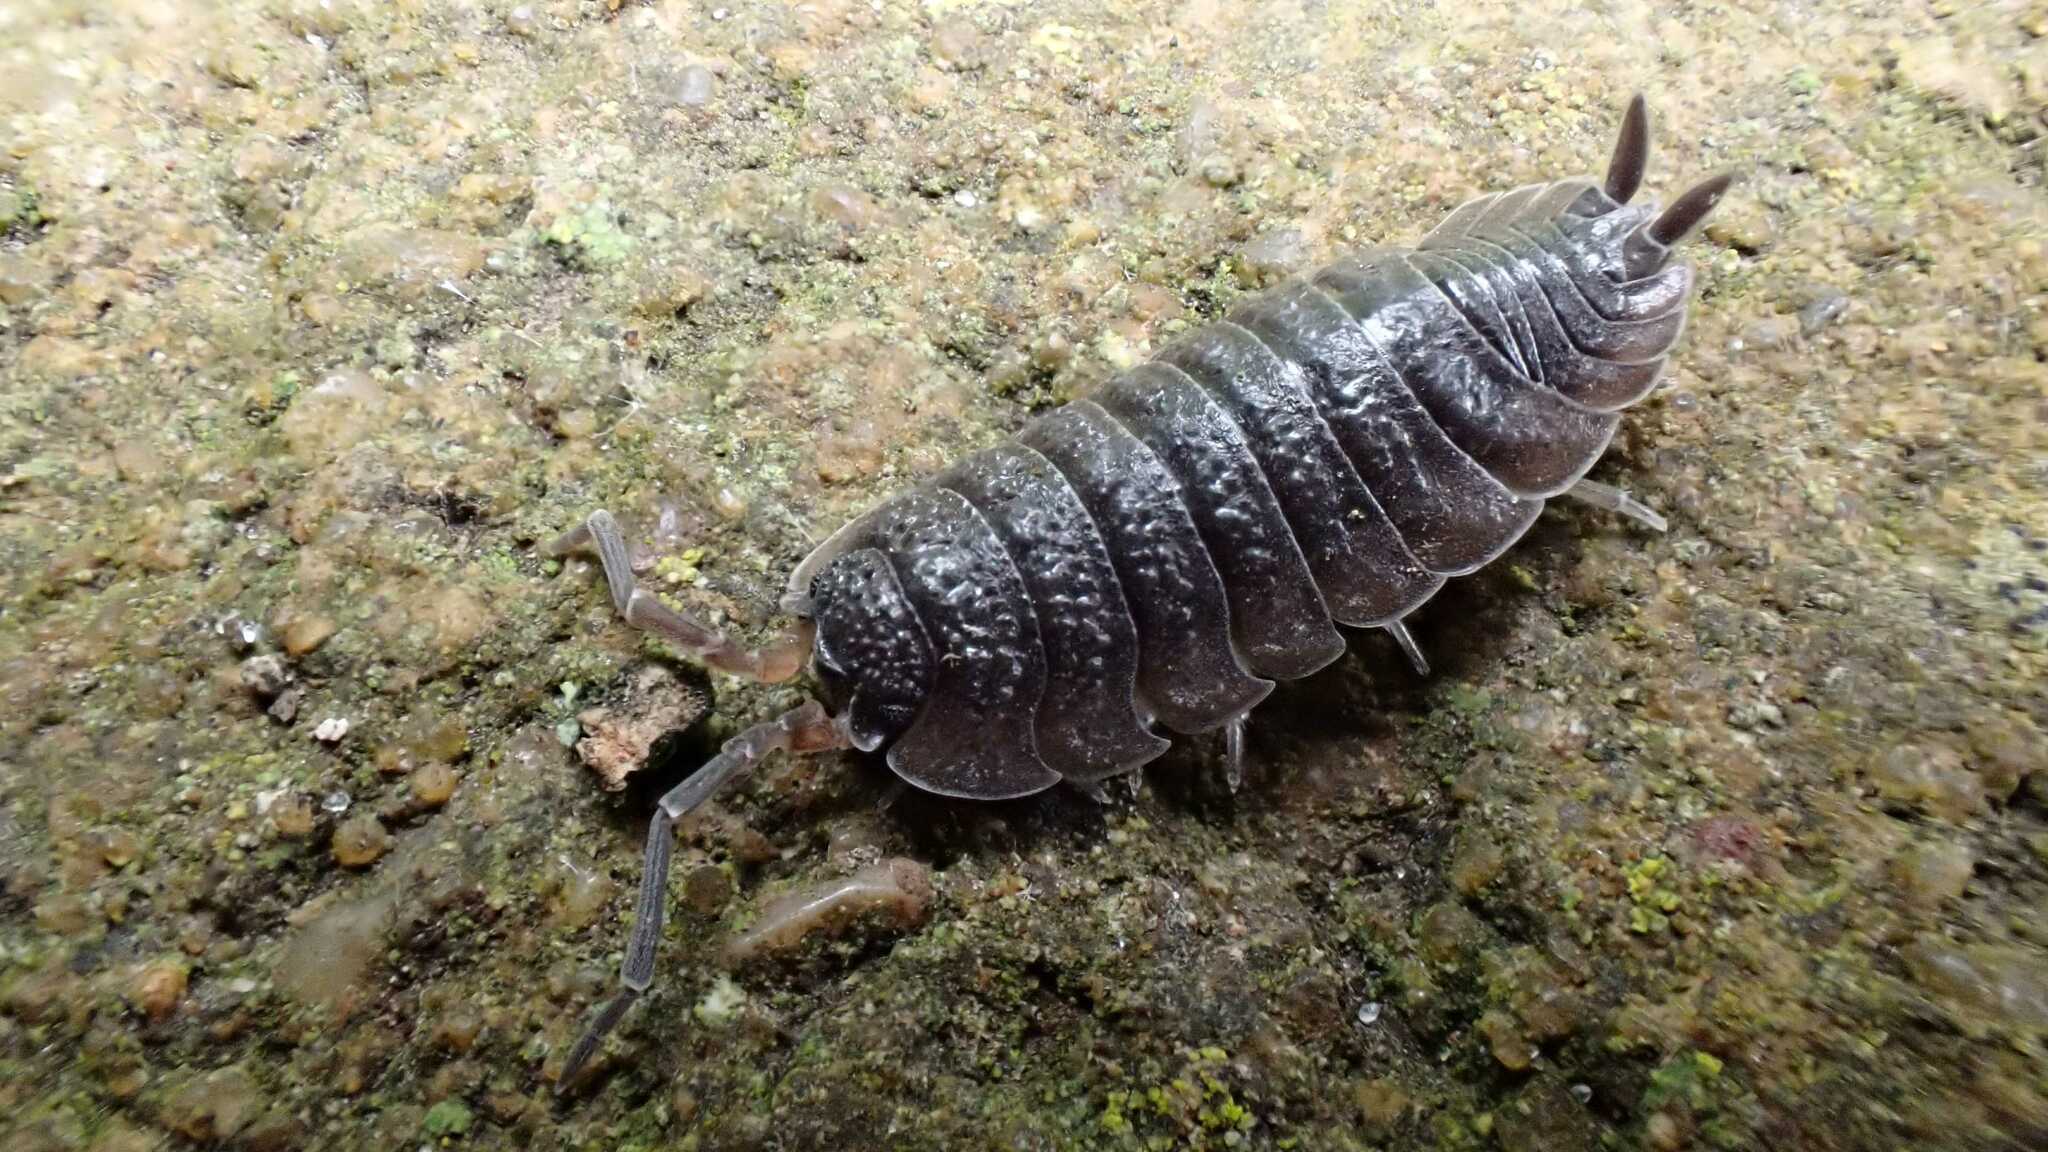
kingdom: Animalia
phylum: Arthropoda
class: Malacostraca
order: Isopoda
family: Porcellionidae
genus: Porcellio
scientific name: Porcellio scaber
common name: Common rough woodlouse
